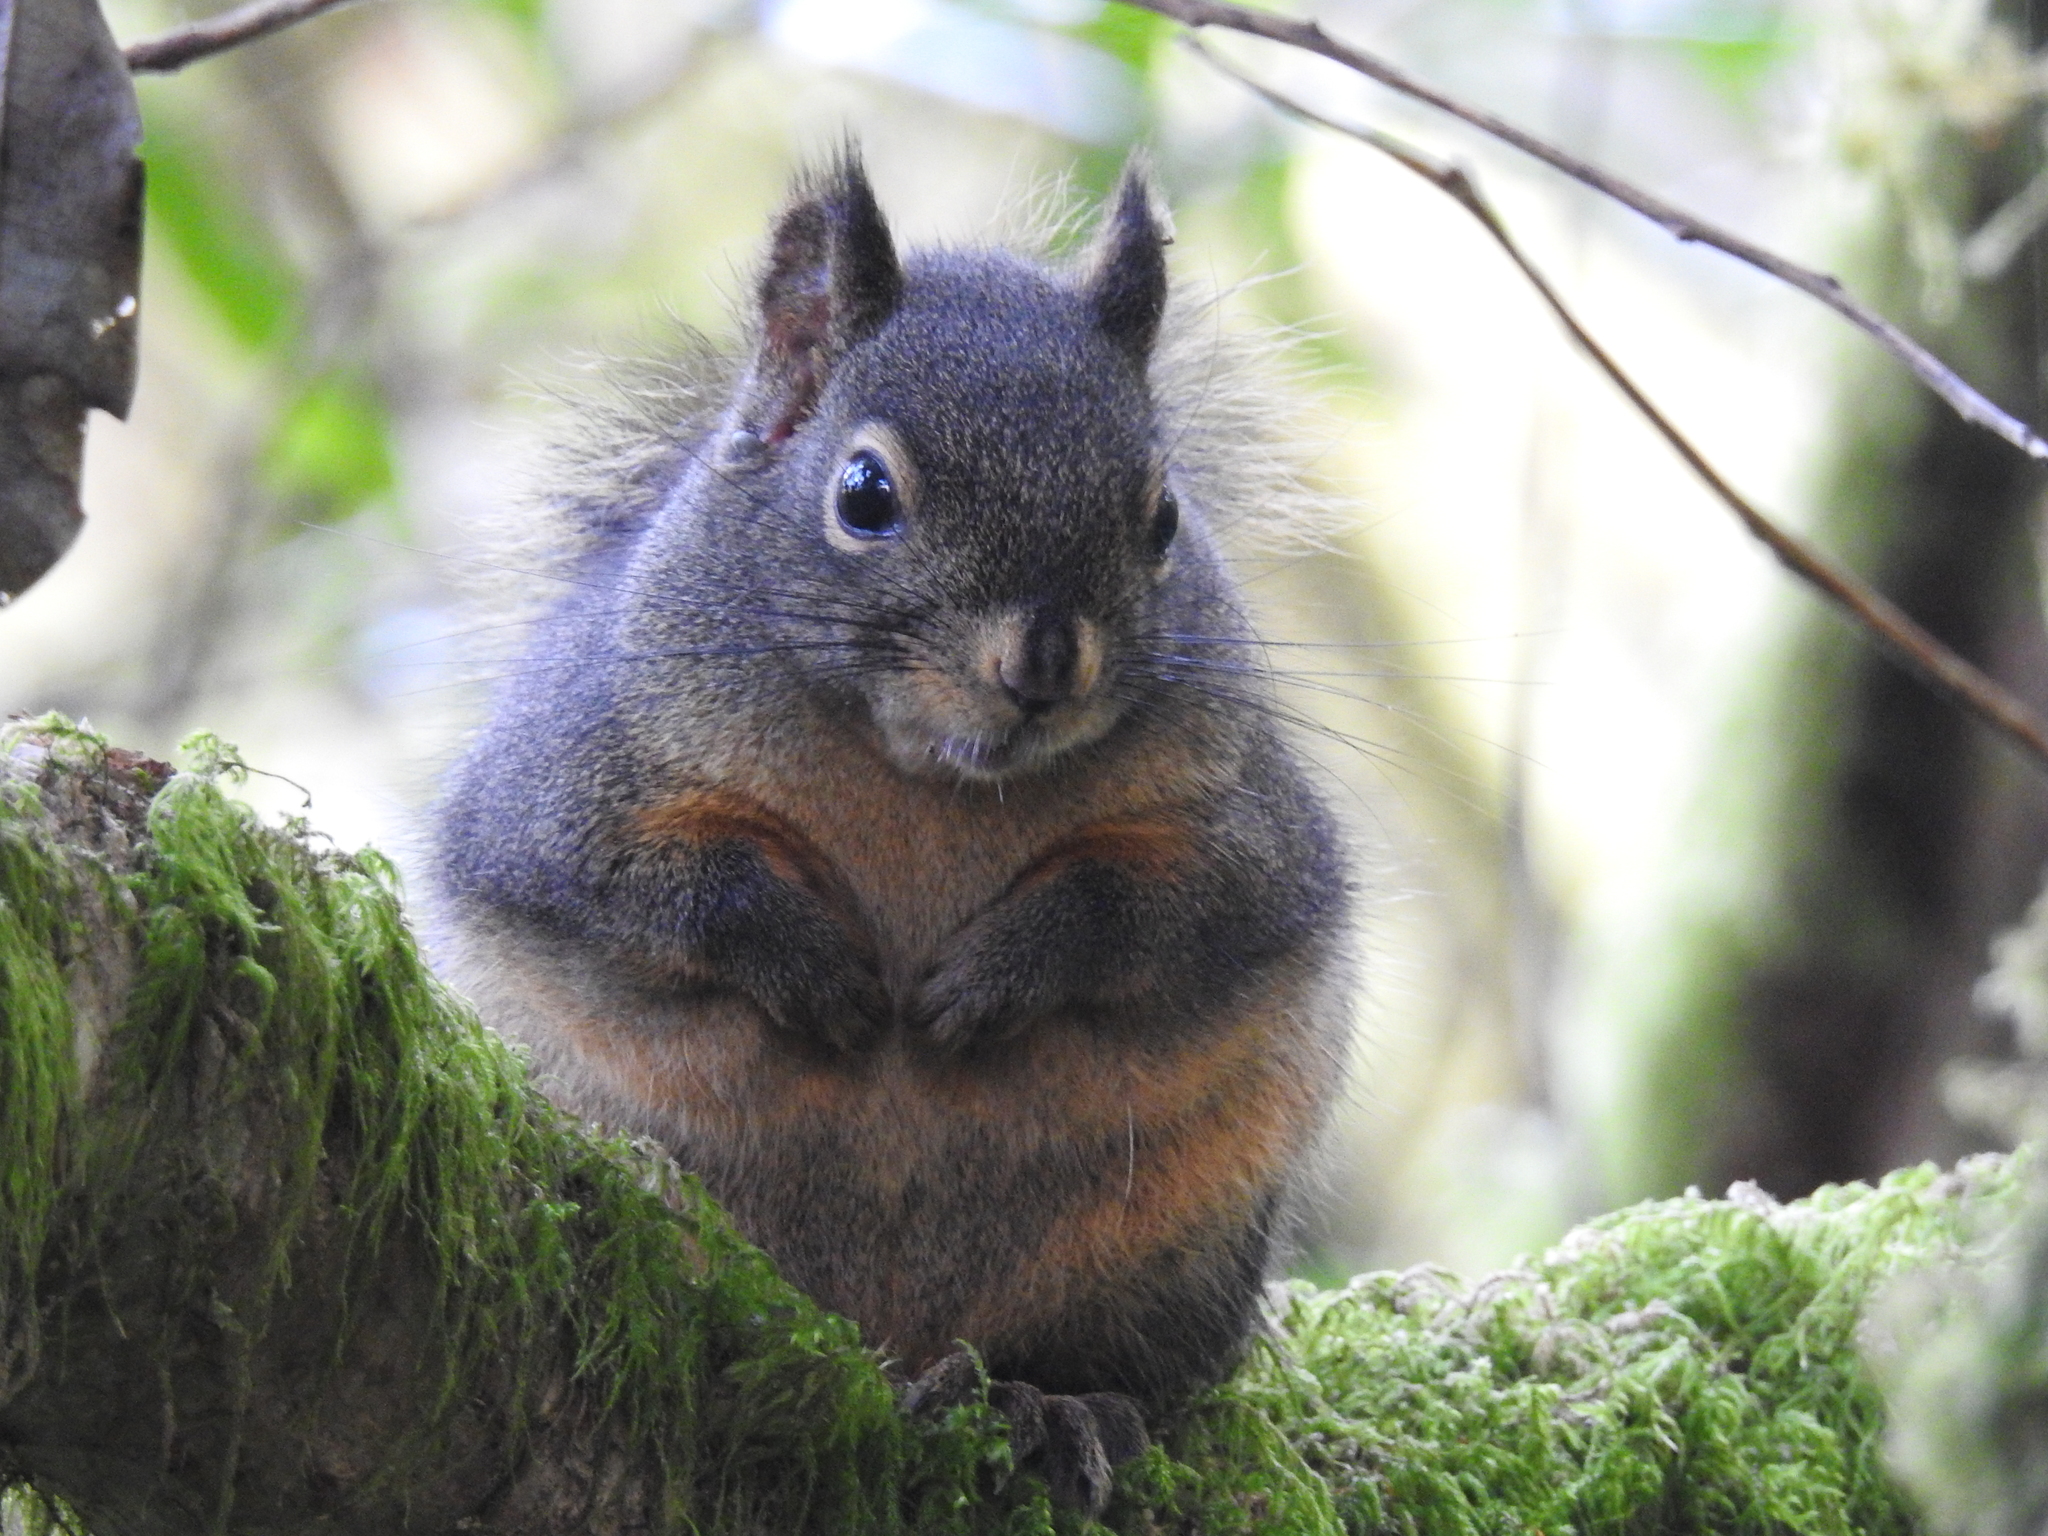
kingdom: Animalia
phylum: Chordata
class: Mammalia
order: Rodentia
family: Sciuridae
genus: Tamiasciurus
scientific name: Tamiasciurus douglasii
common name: Douglas's squirrel
